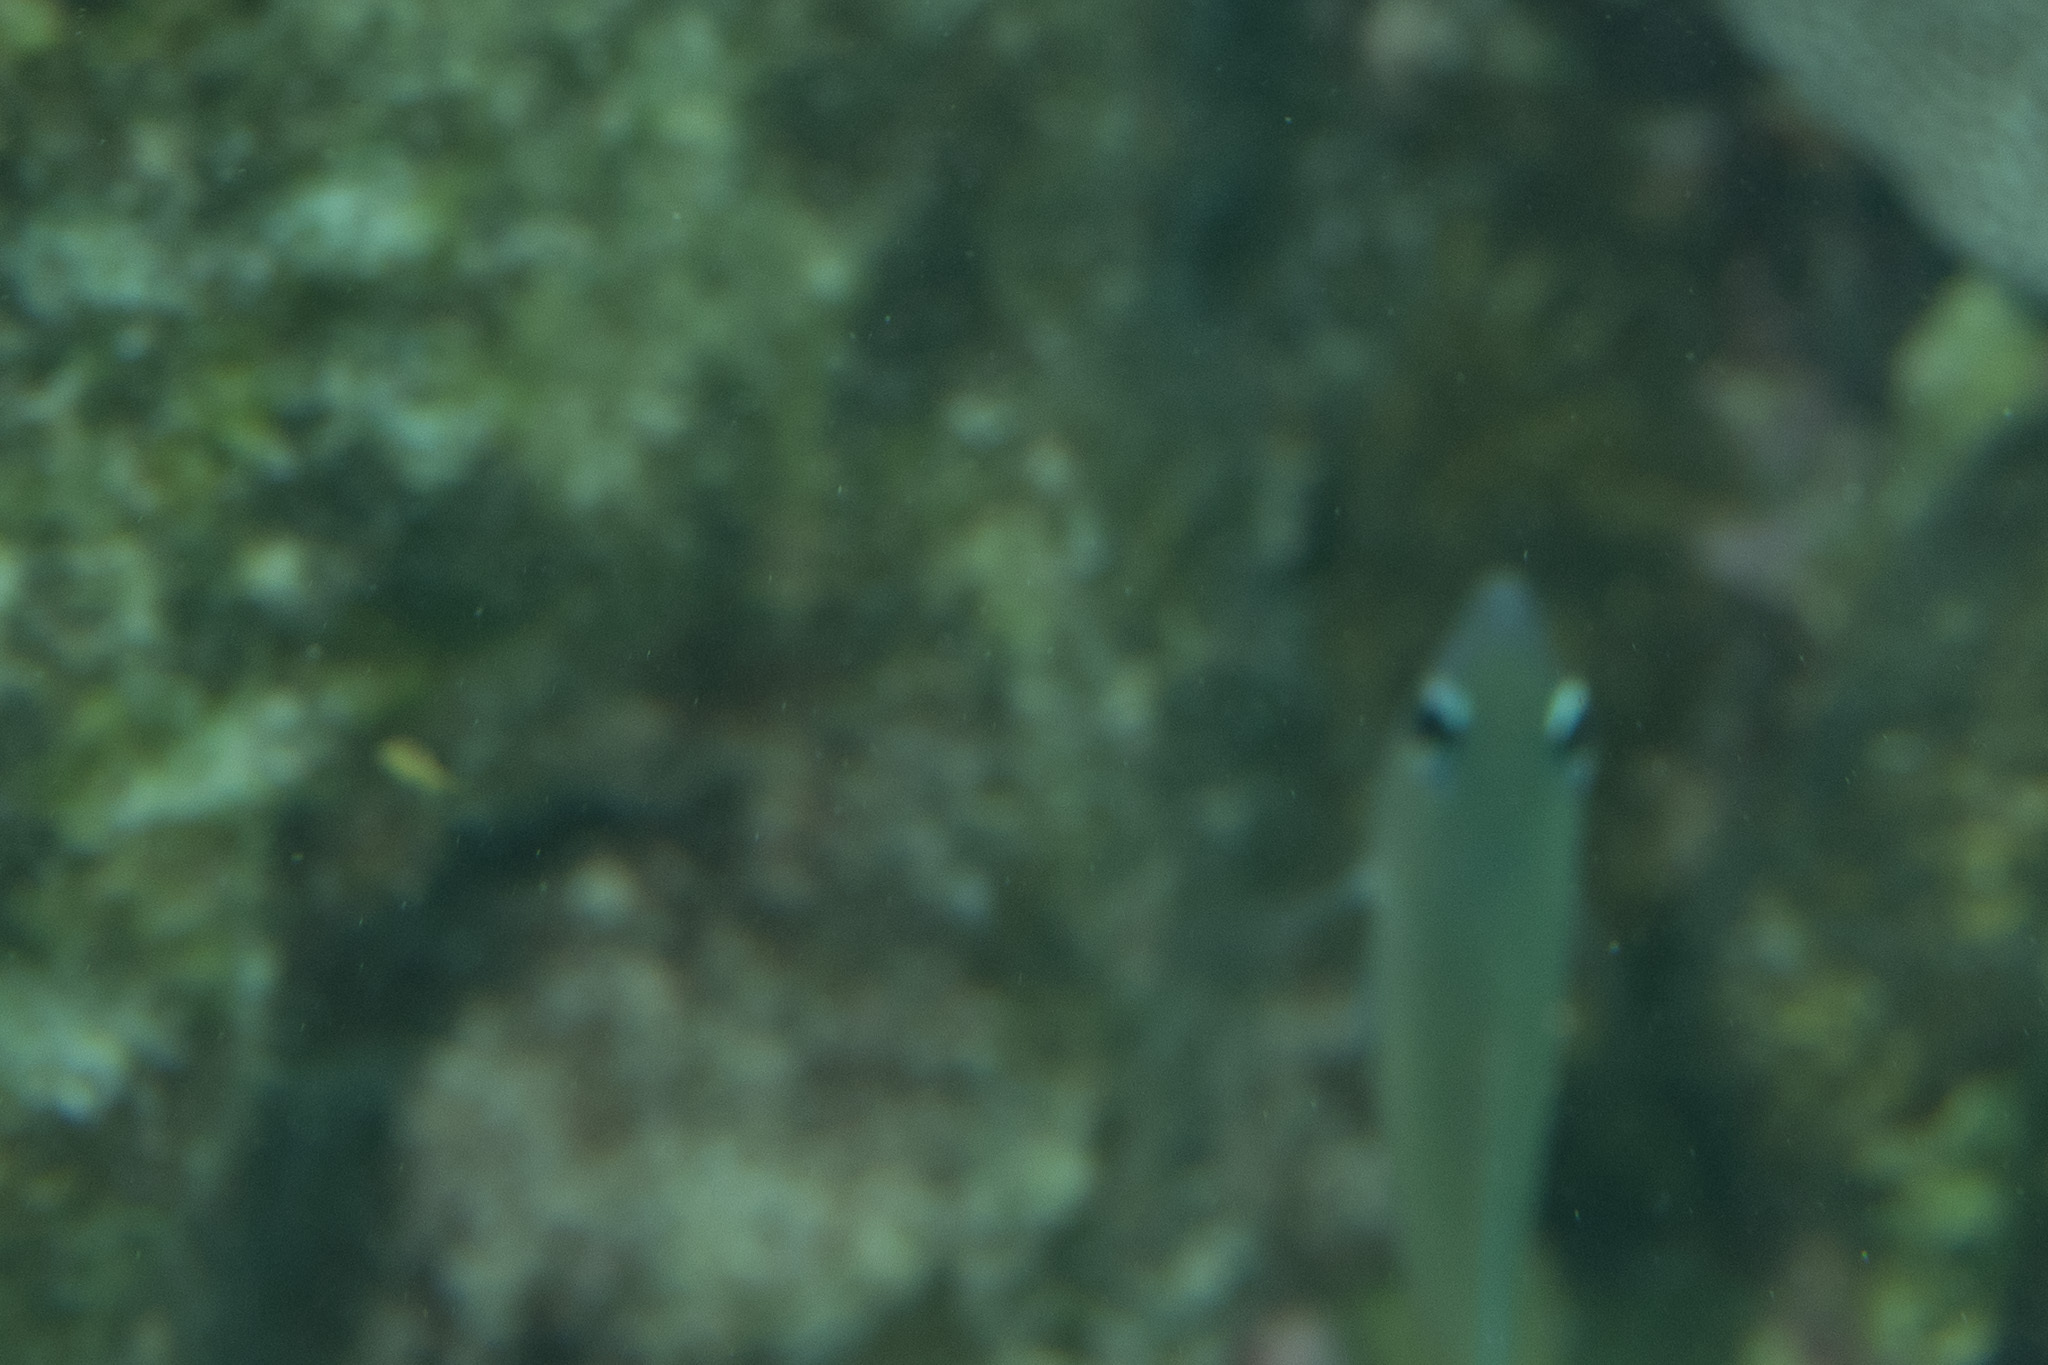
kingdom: Animalia
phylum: Chordata
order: Perciformes
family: Pomacentridae
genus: Plectroglyphidodon
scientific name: Plectroglyphidodon imparipennis
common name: Brighteye damsel
